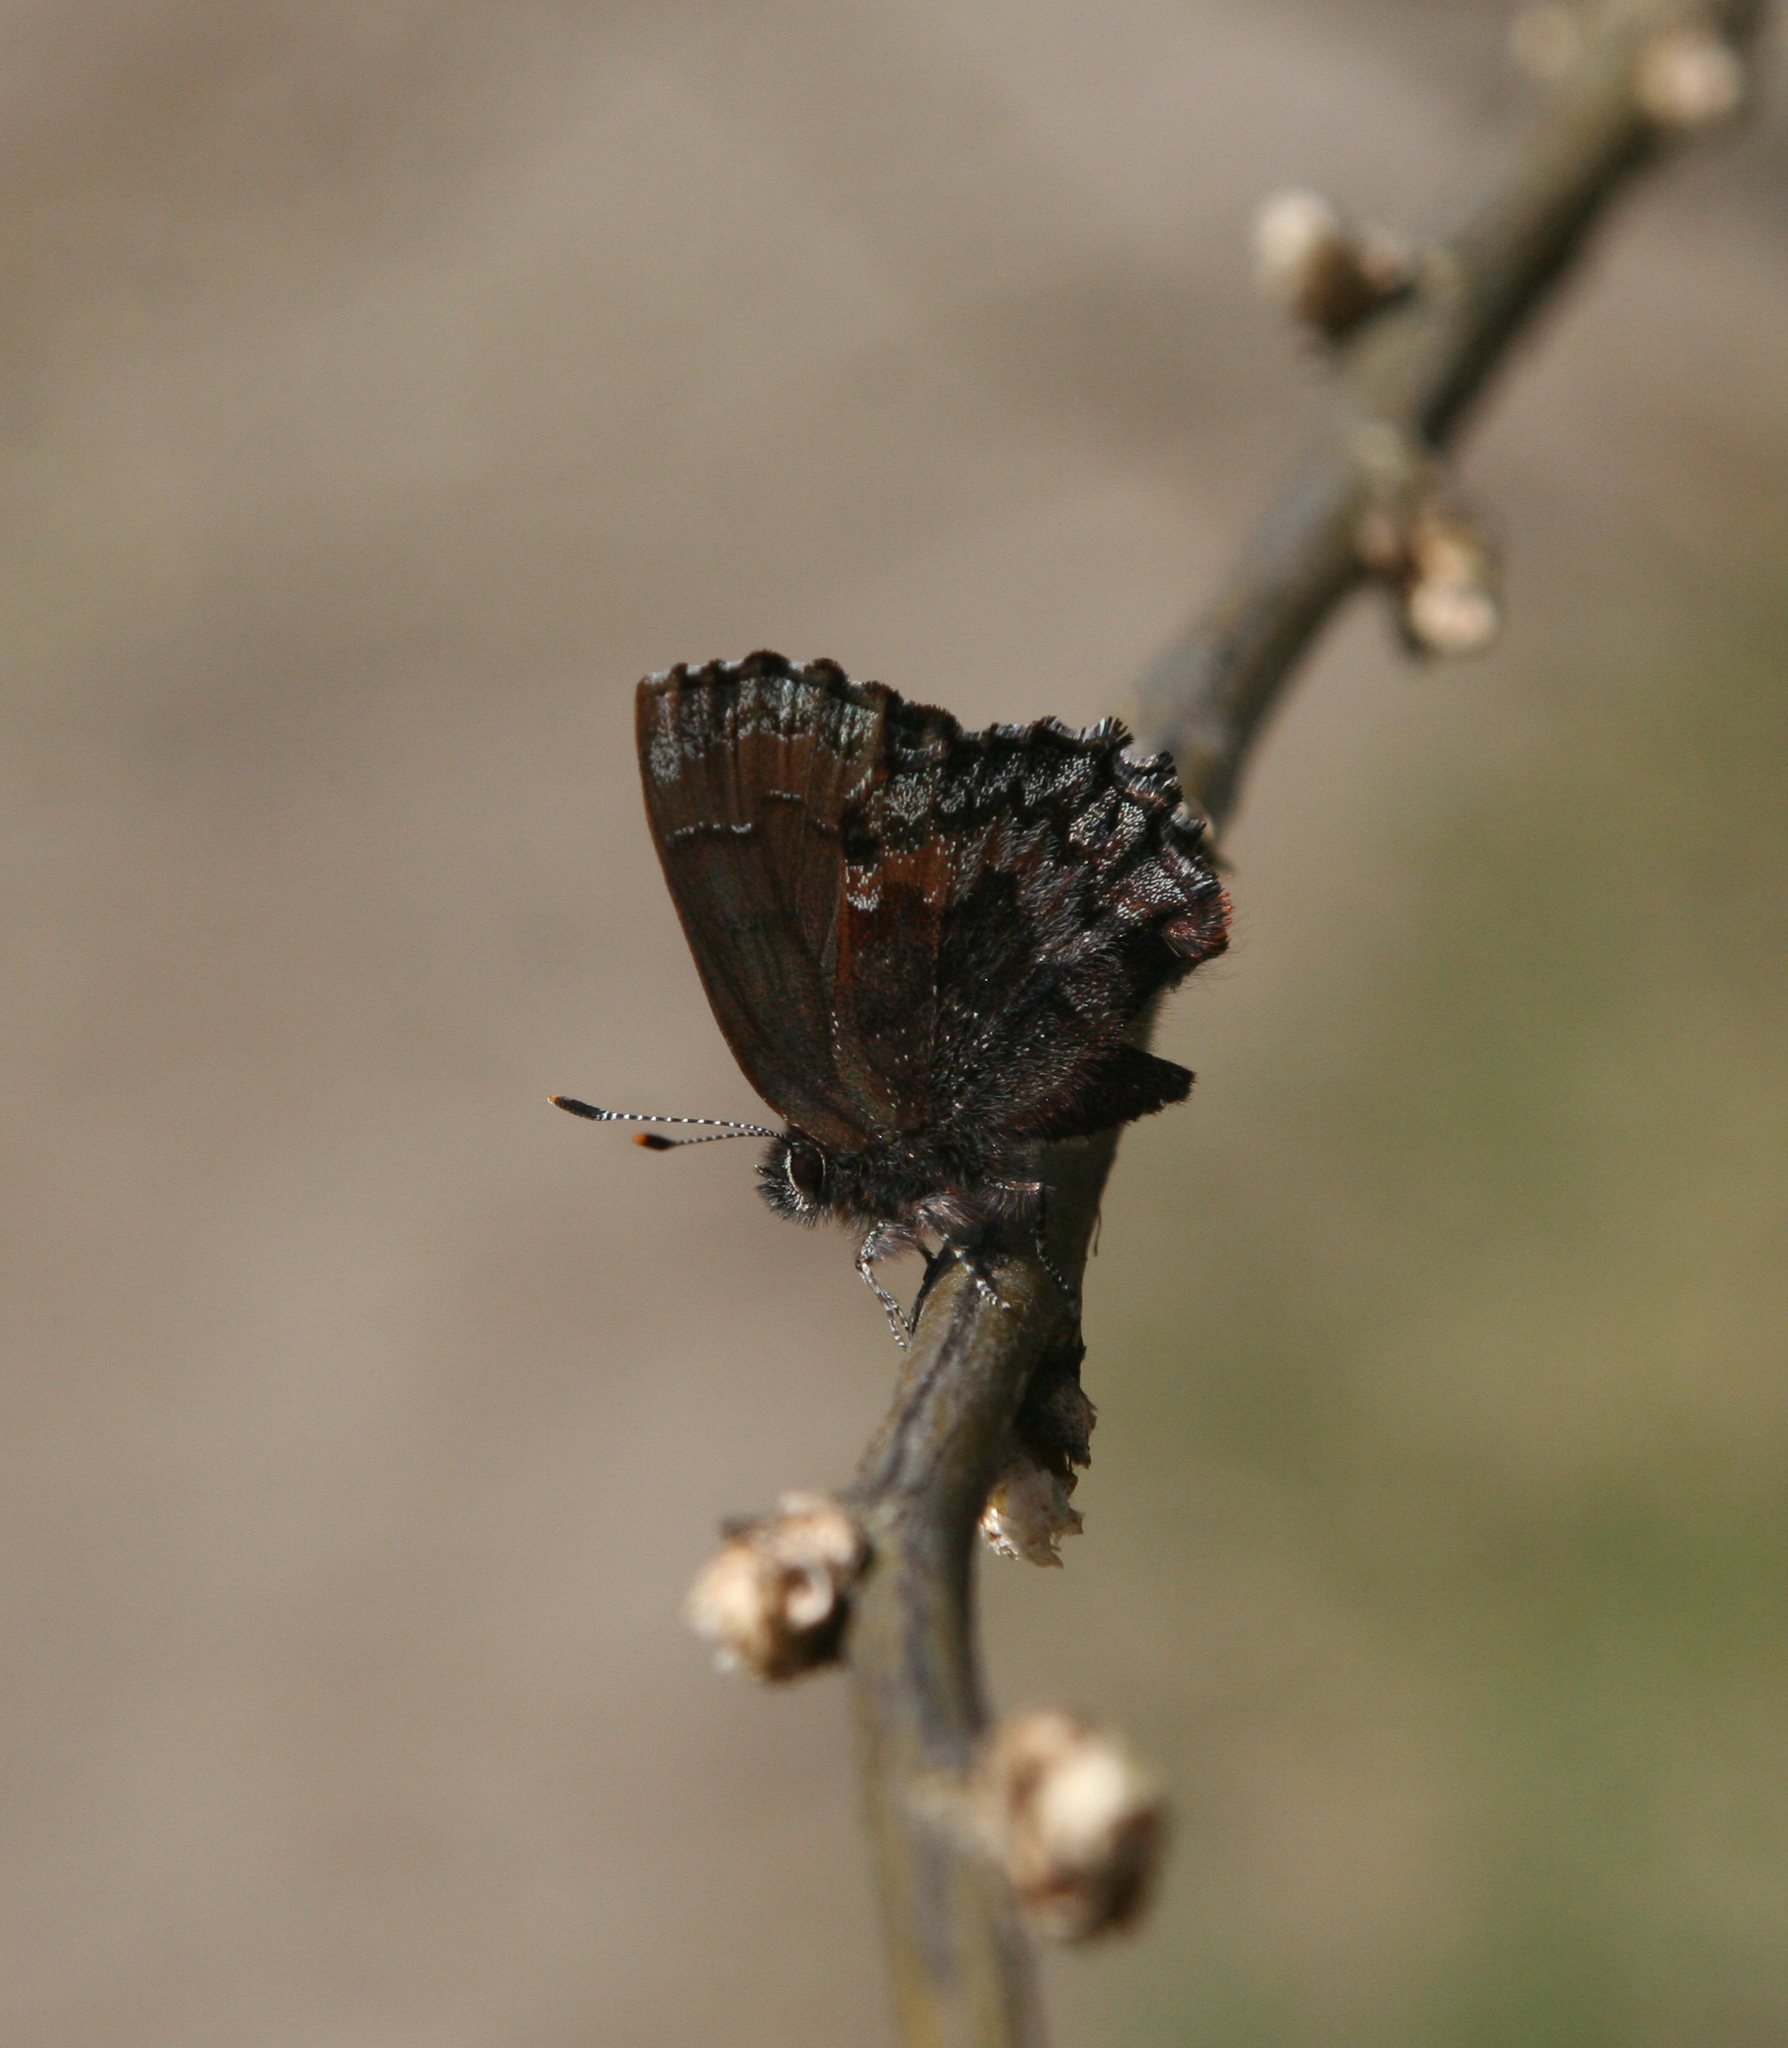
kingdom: Animalia
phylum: Arthropoda
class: Insecta
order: Lepidoptera
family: Lycaenidae
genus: Ginzia
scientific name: Ginzia Ahlbergia frivaldszkyi
